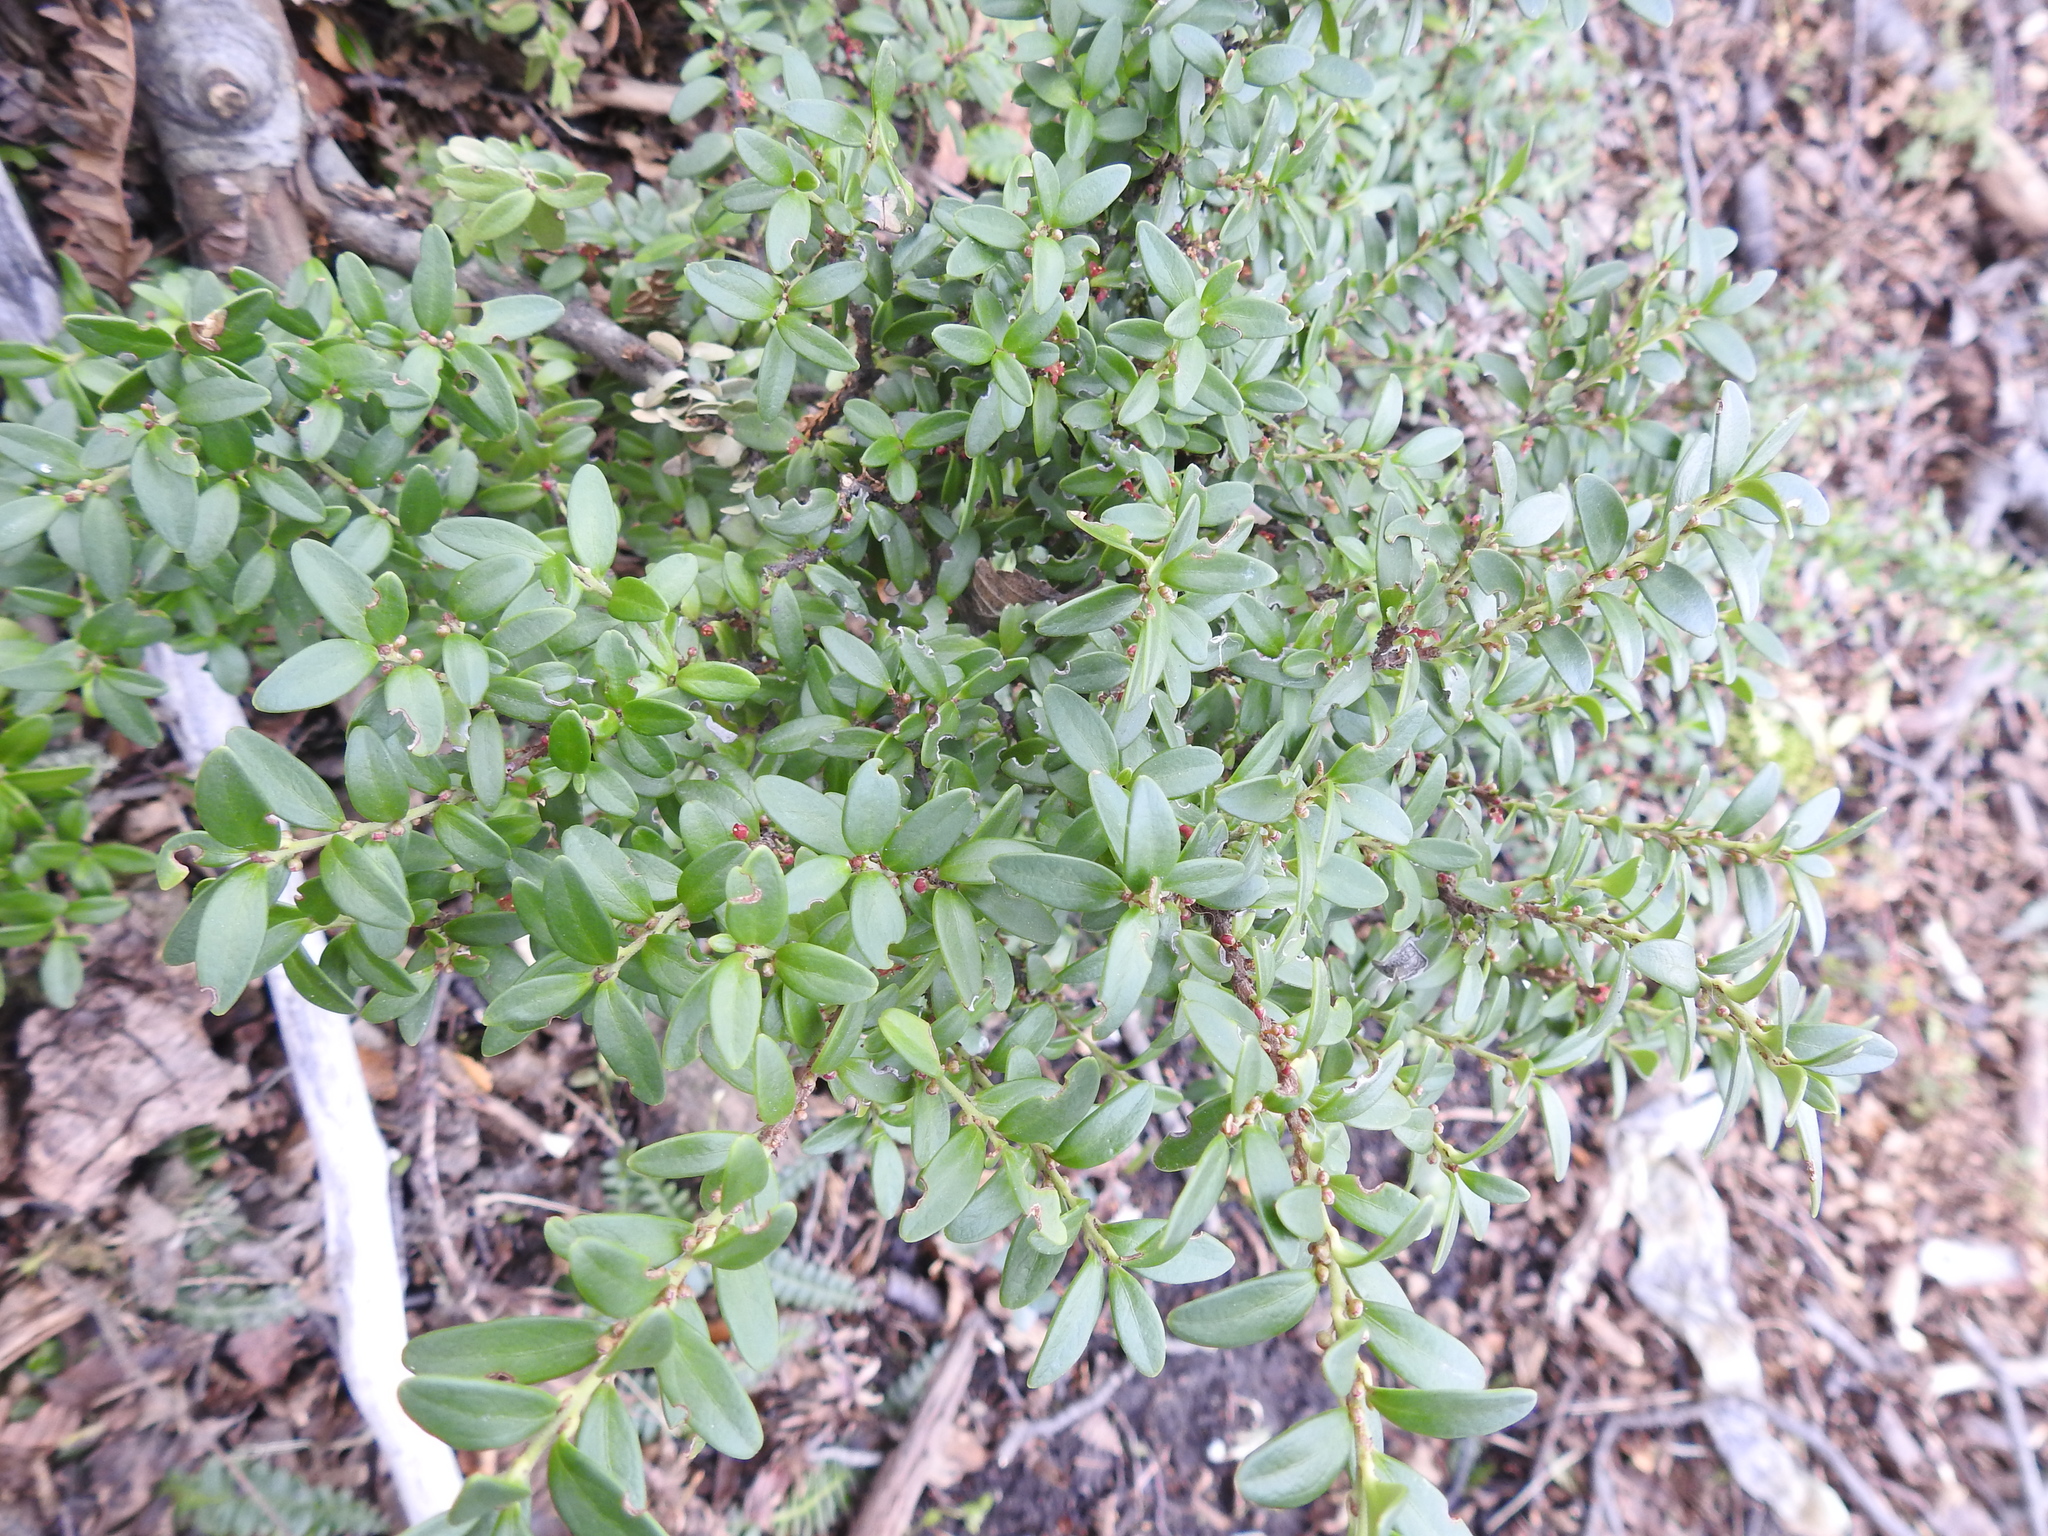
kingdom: Plantae
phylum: Tracheophyta
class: Magnoliopsida
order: Celastrales
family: Celastraceae
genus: Maytenus
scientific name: Maytenus disticha
